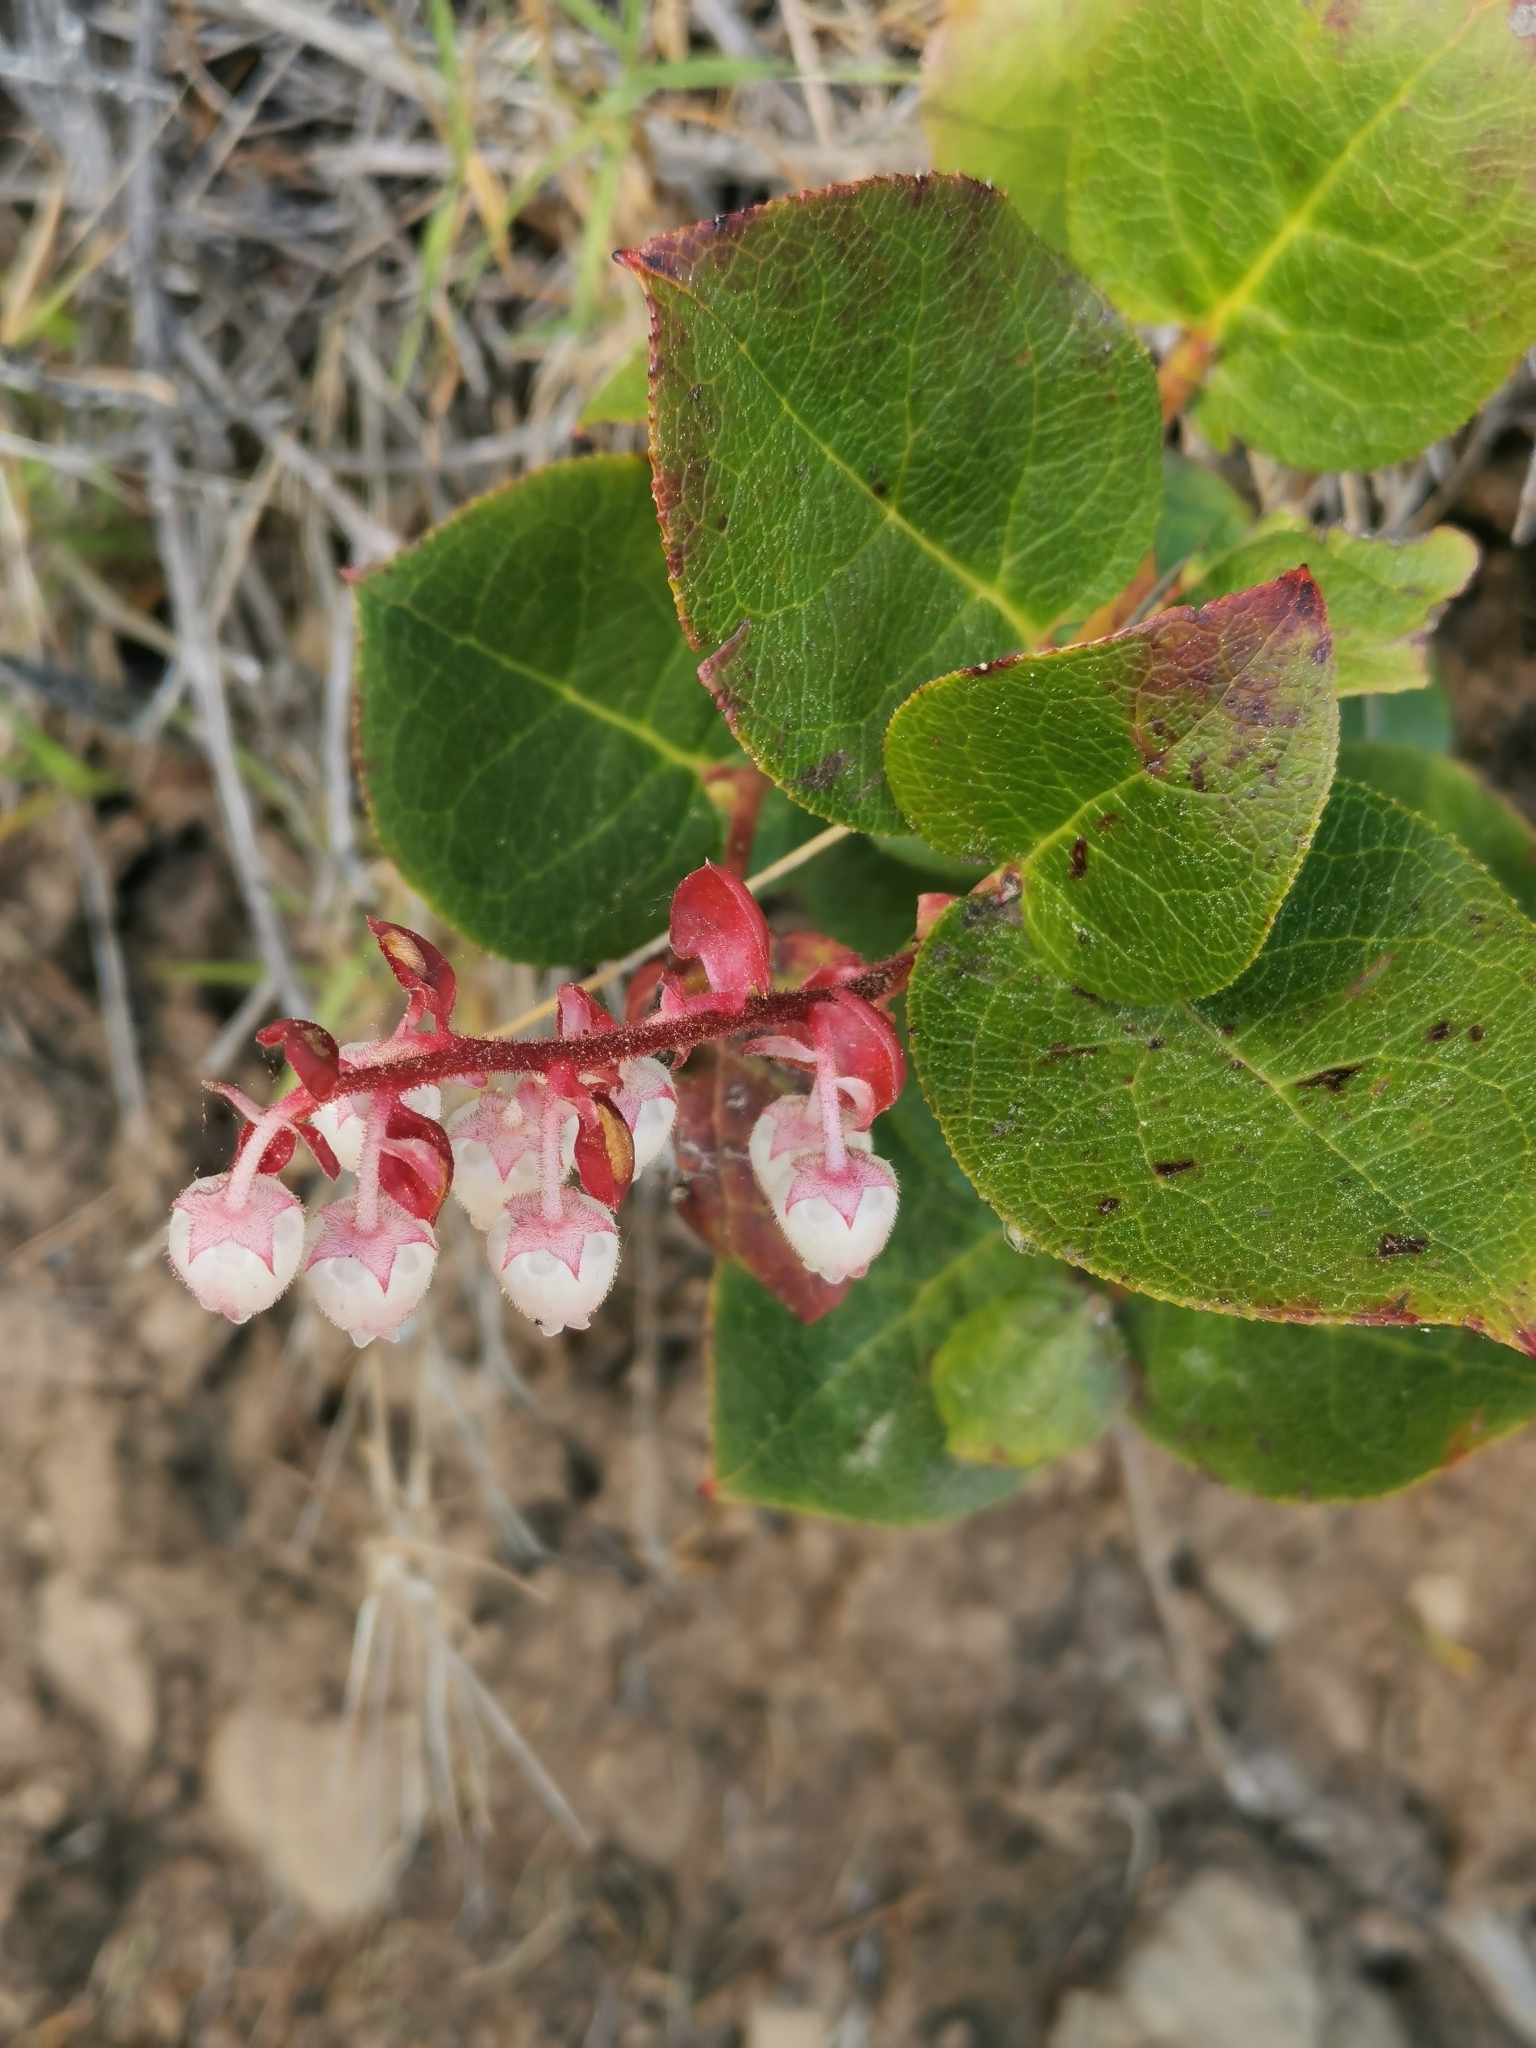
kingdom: Plantae
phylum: Tracheophyta
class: Magnoliopsida
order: Ericales
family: Ericaceae
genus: Gaultheria
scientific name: Gaultheria shallon
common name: Shallon
